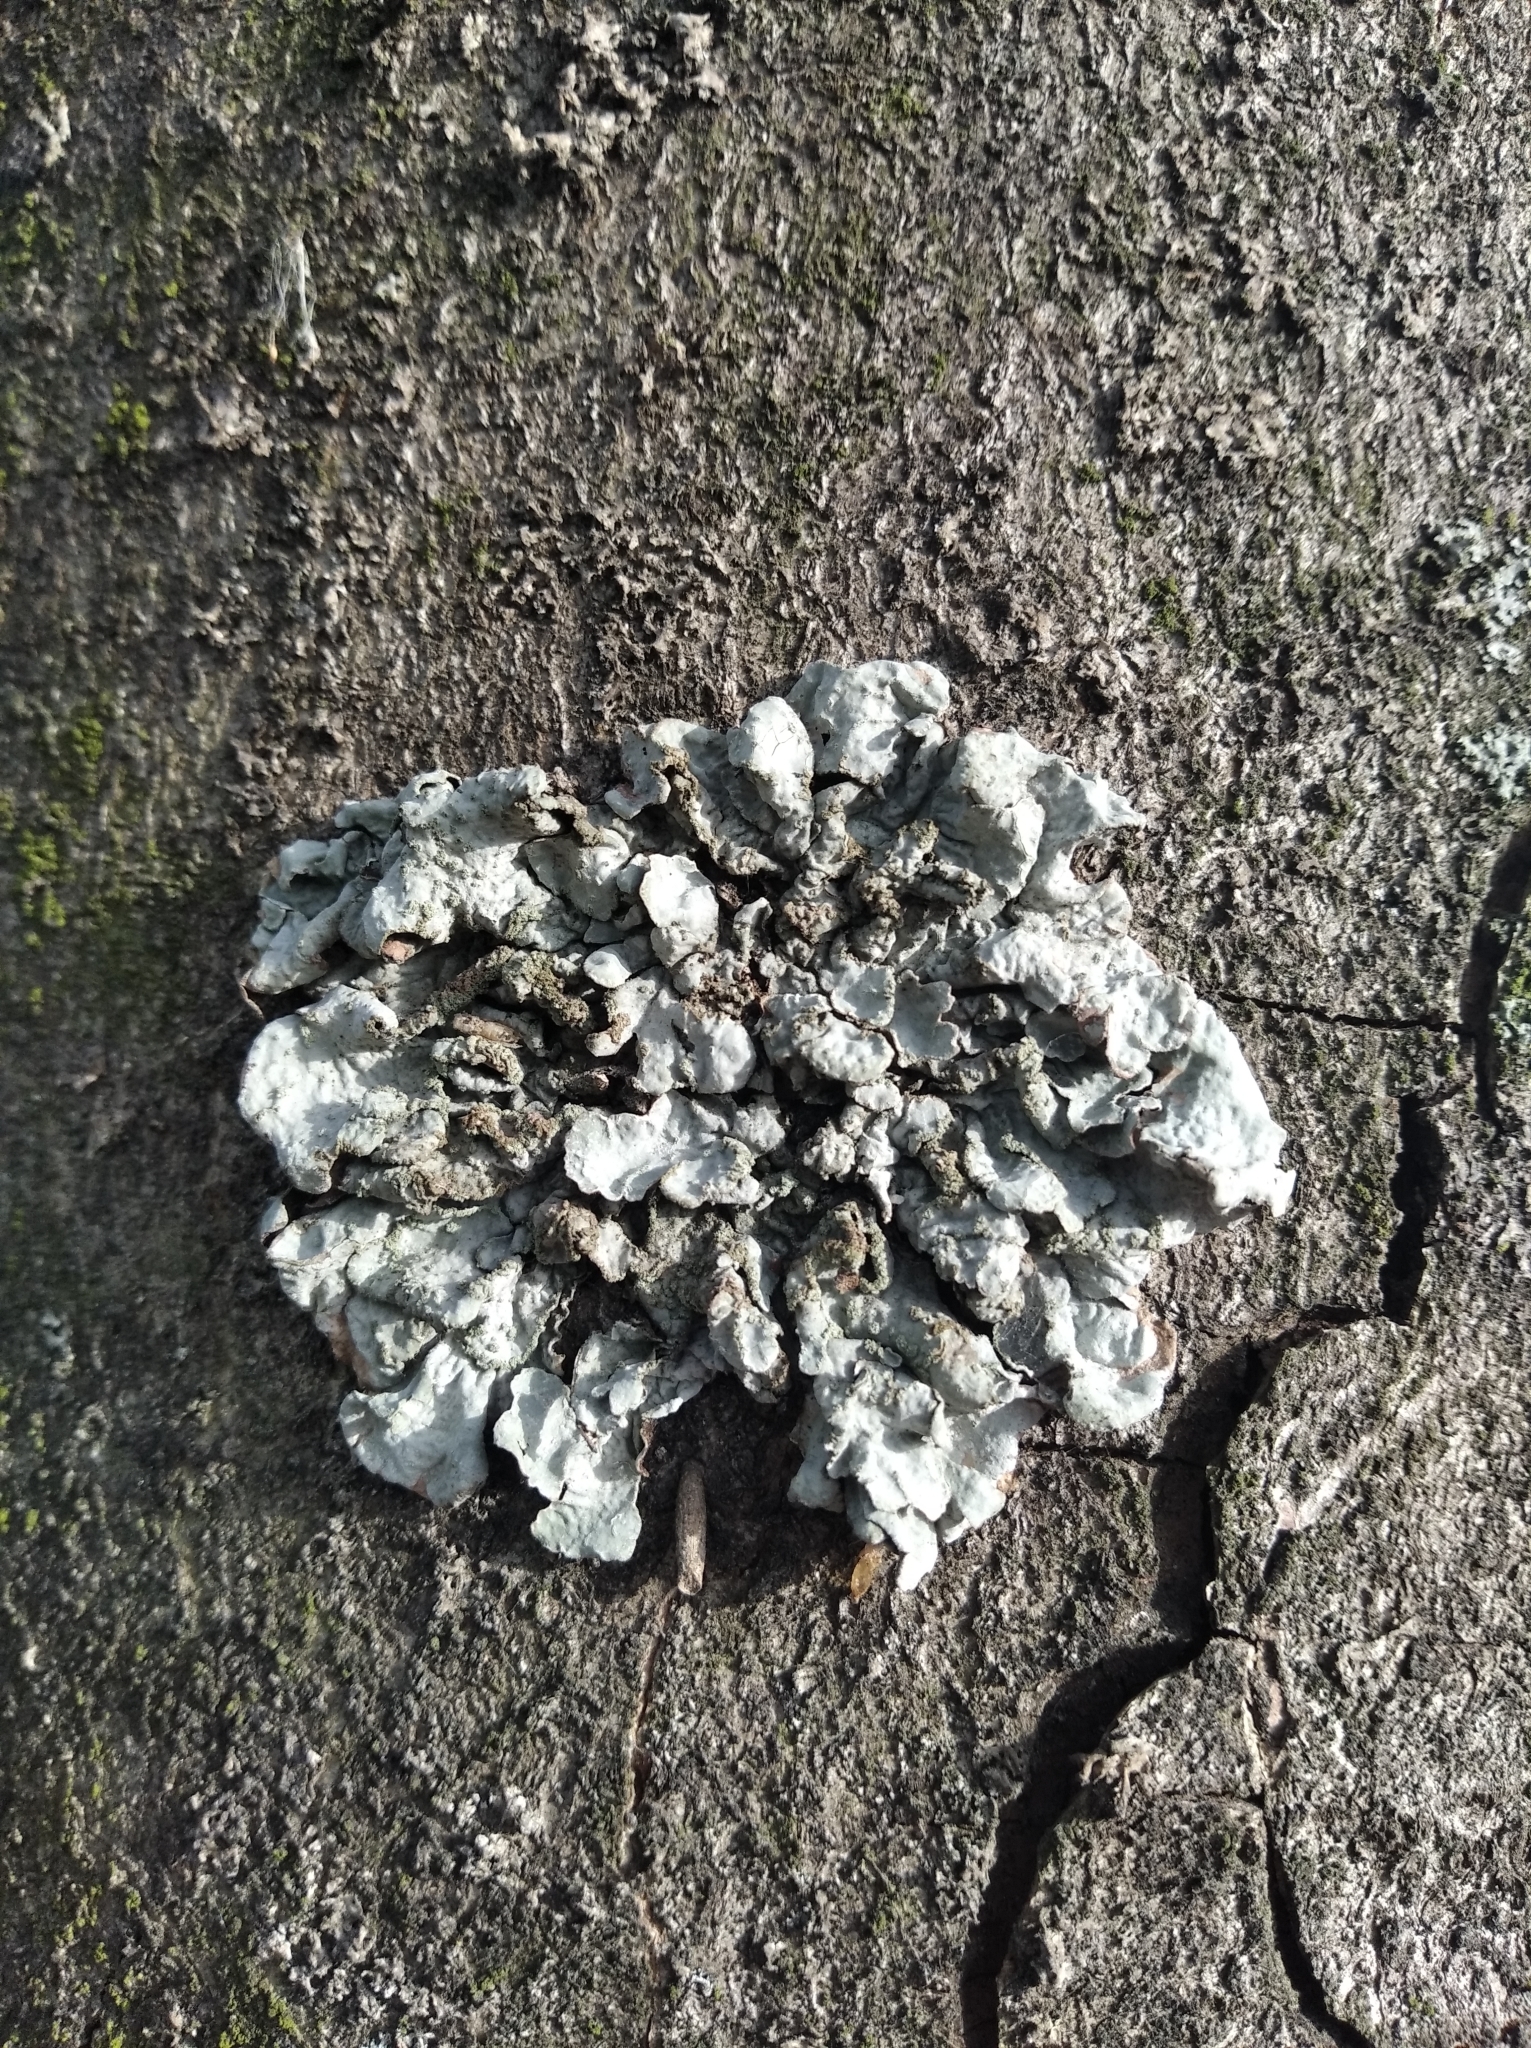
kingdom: Fungi
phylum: Ascomycota
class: Lecanoromycetes
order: Lecanorales
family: Parmeliaceae
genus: Parmelia
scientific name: Parmelia sulcata
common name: Netted shield lichen
